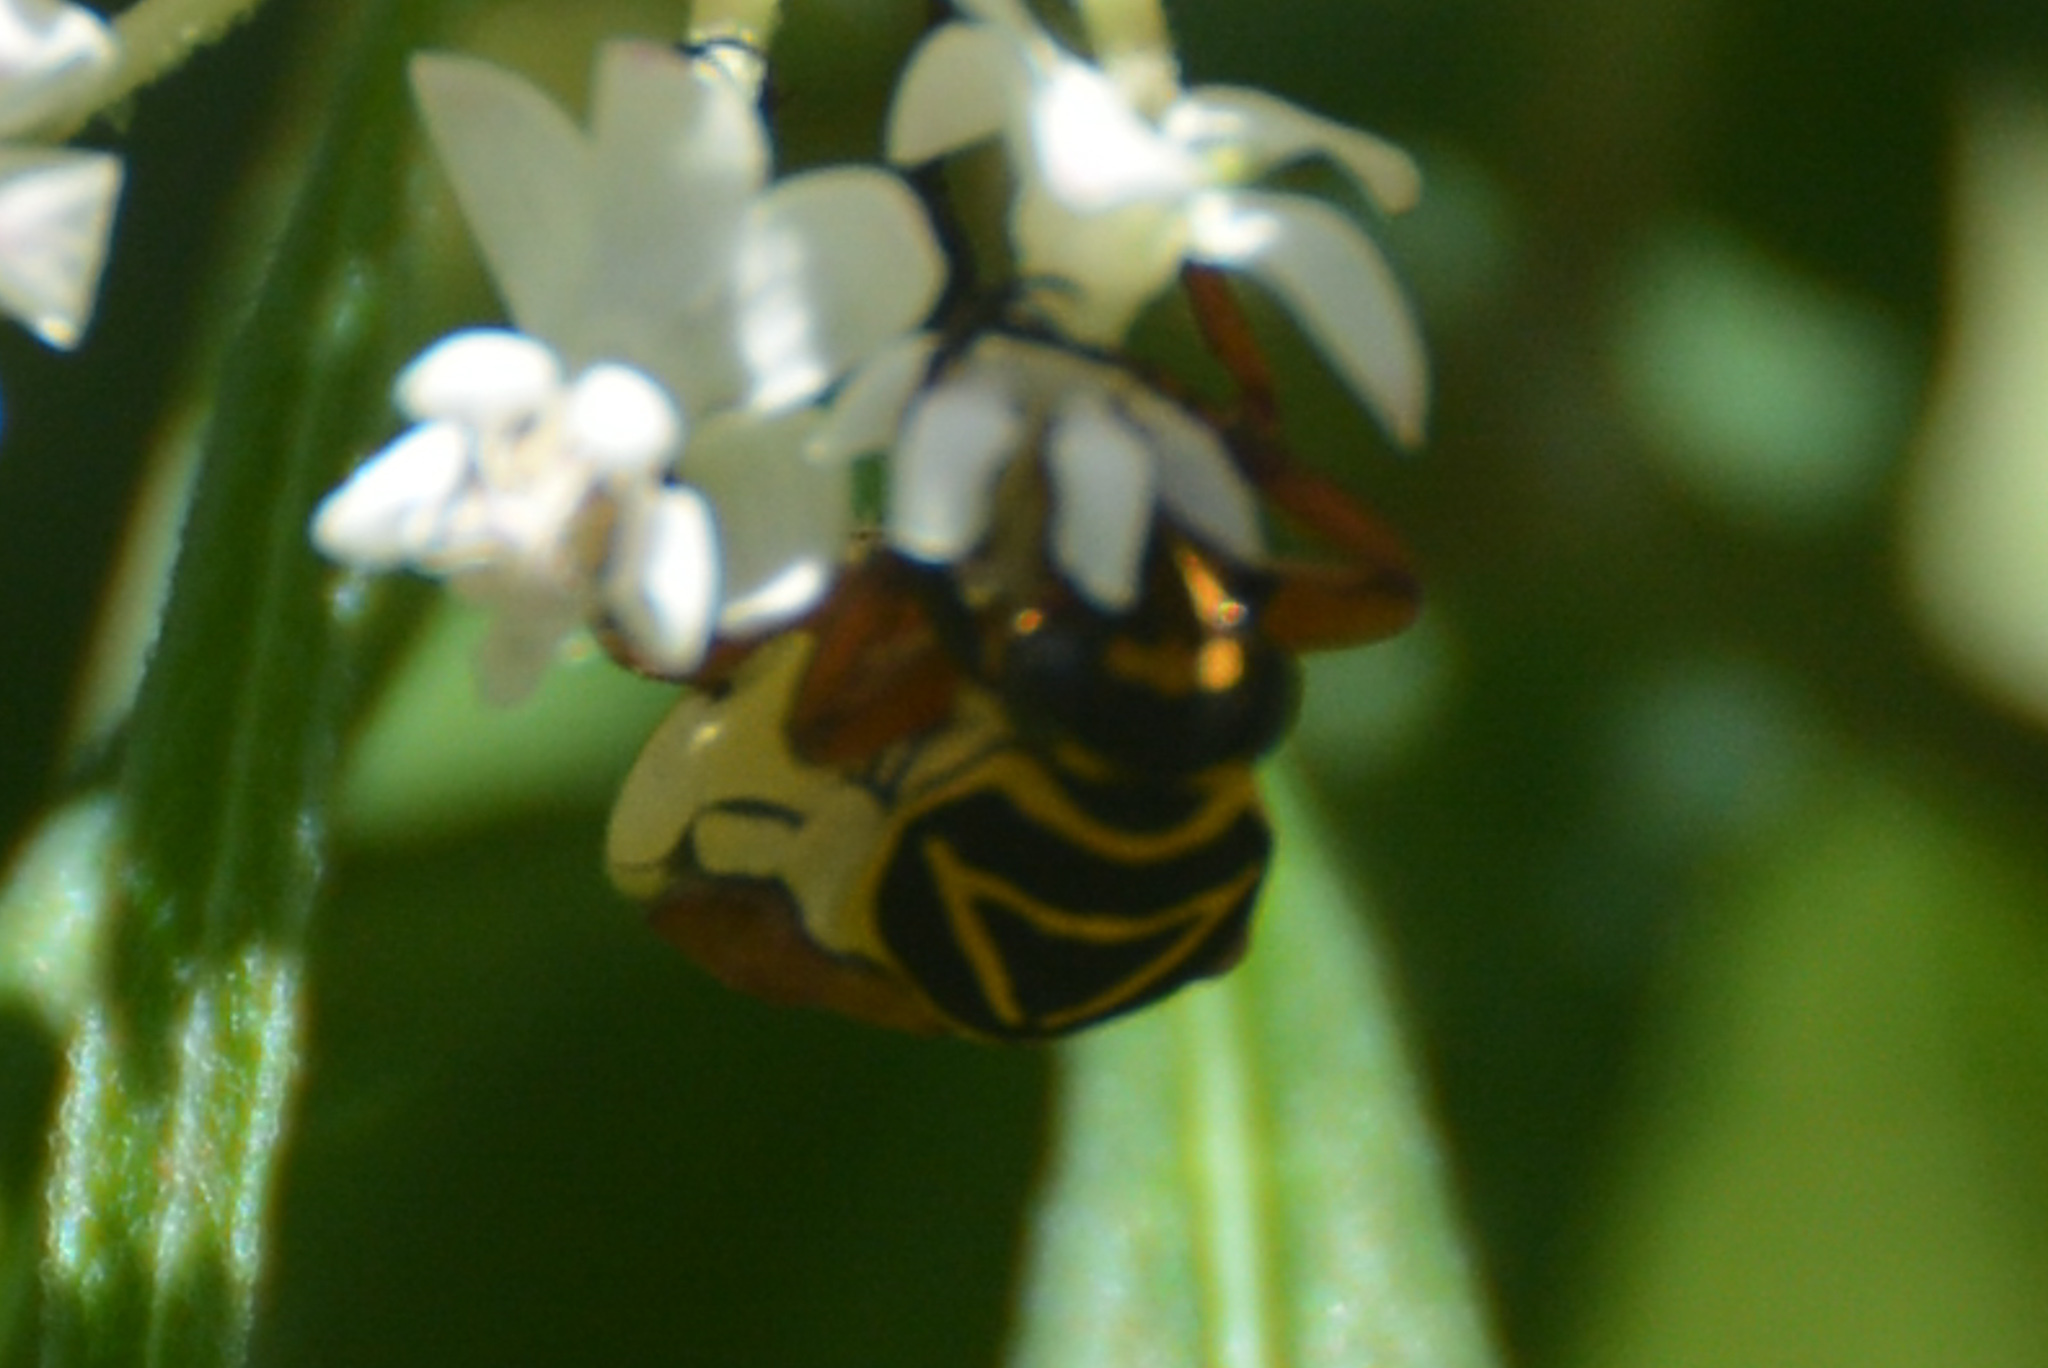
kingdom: Animalia
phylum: Arthropoda
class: Insecta
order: Coleoptera
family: Scarabaeidae
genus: Trigonopeltastes
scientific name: Trigonopeltastes delta
